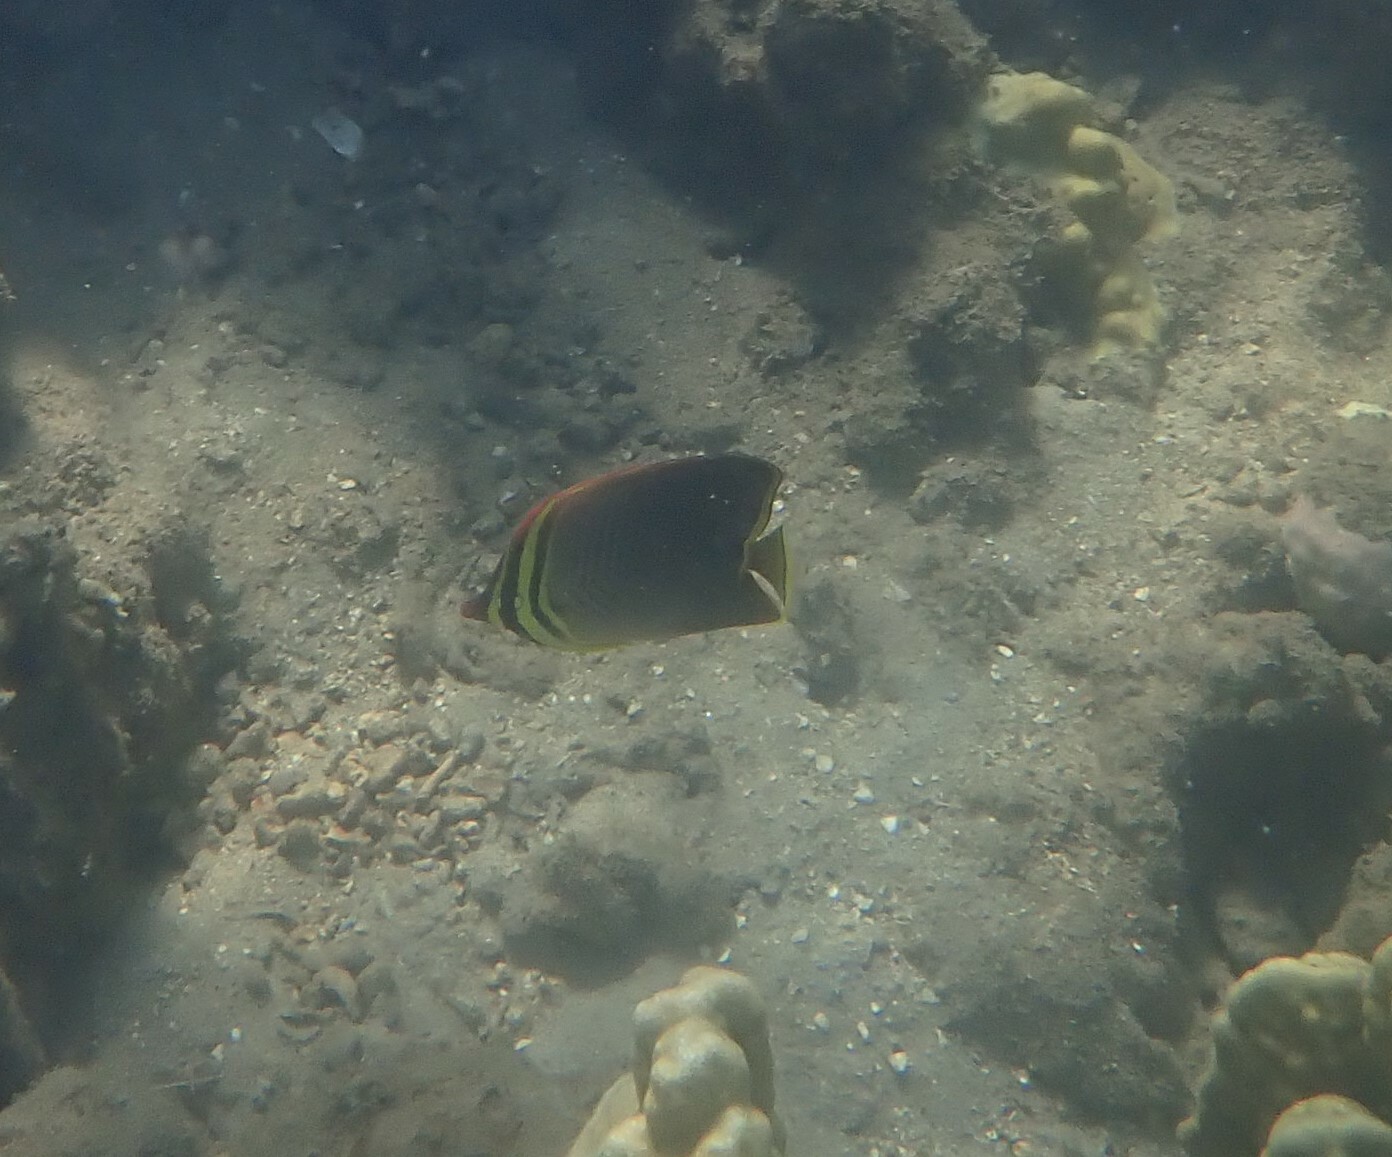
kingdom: Animalia
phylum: Chordata
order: Perciformes
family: Chaetodontidae
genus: Chaetodon
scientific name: Chaetodon baronessa
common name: Triangular butterflyfish
